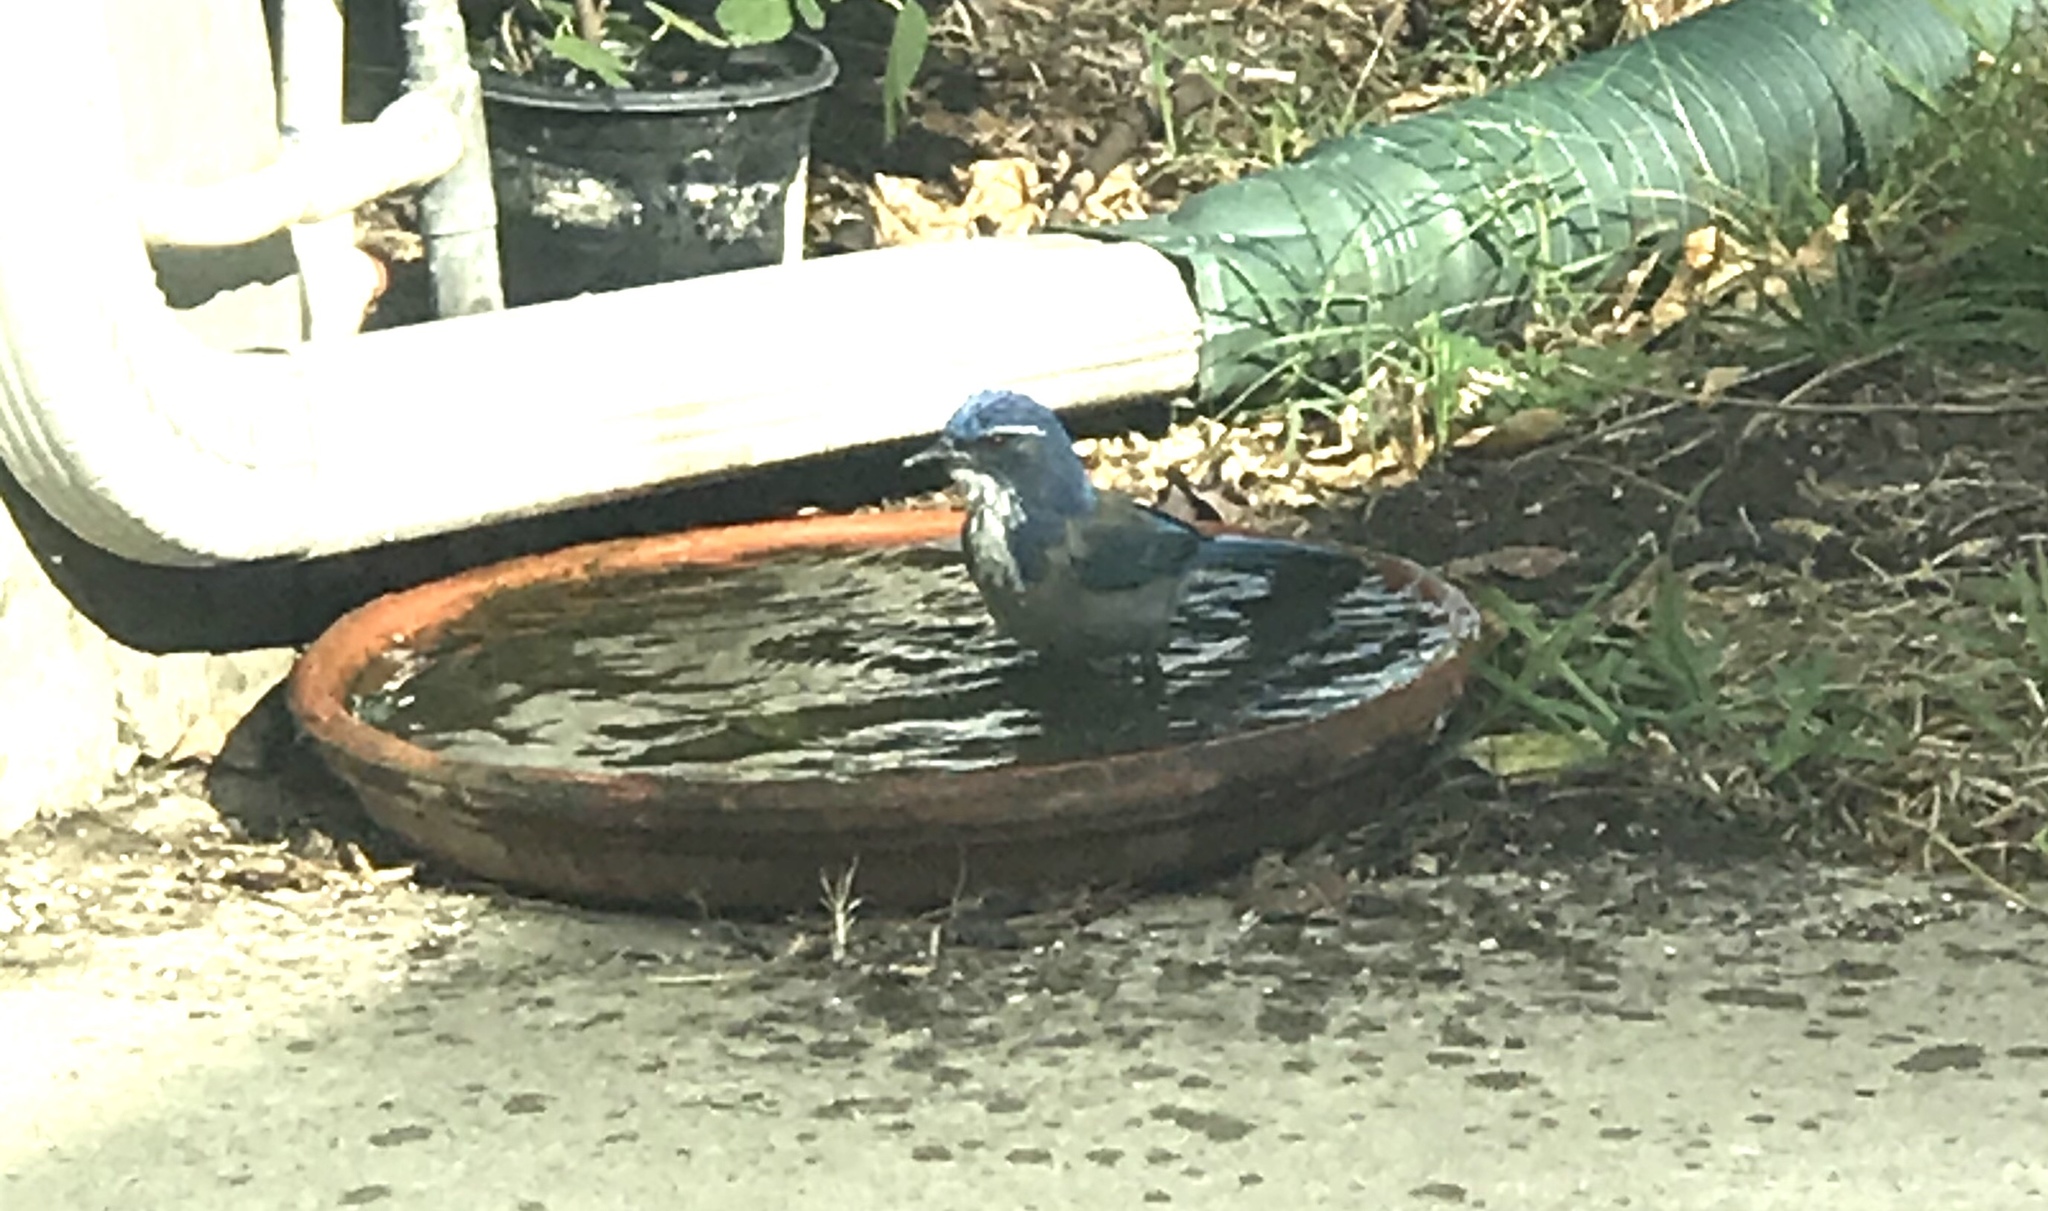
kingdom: Animalia
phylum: Chordata
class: Aves
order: Passeriformes
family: Corvidae
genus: Aphelocoma
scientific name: Aphelocoma californica
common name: California scrub-jay
